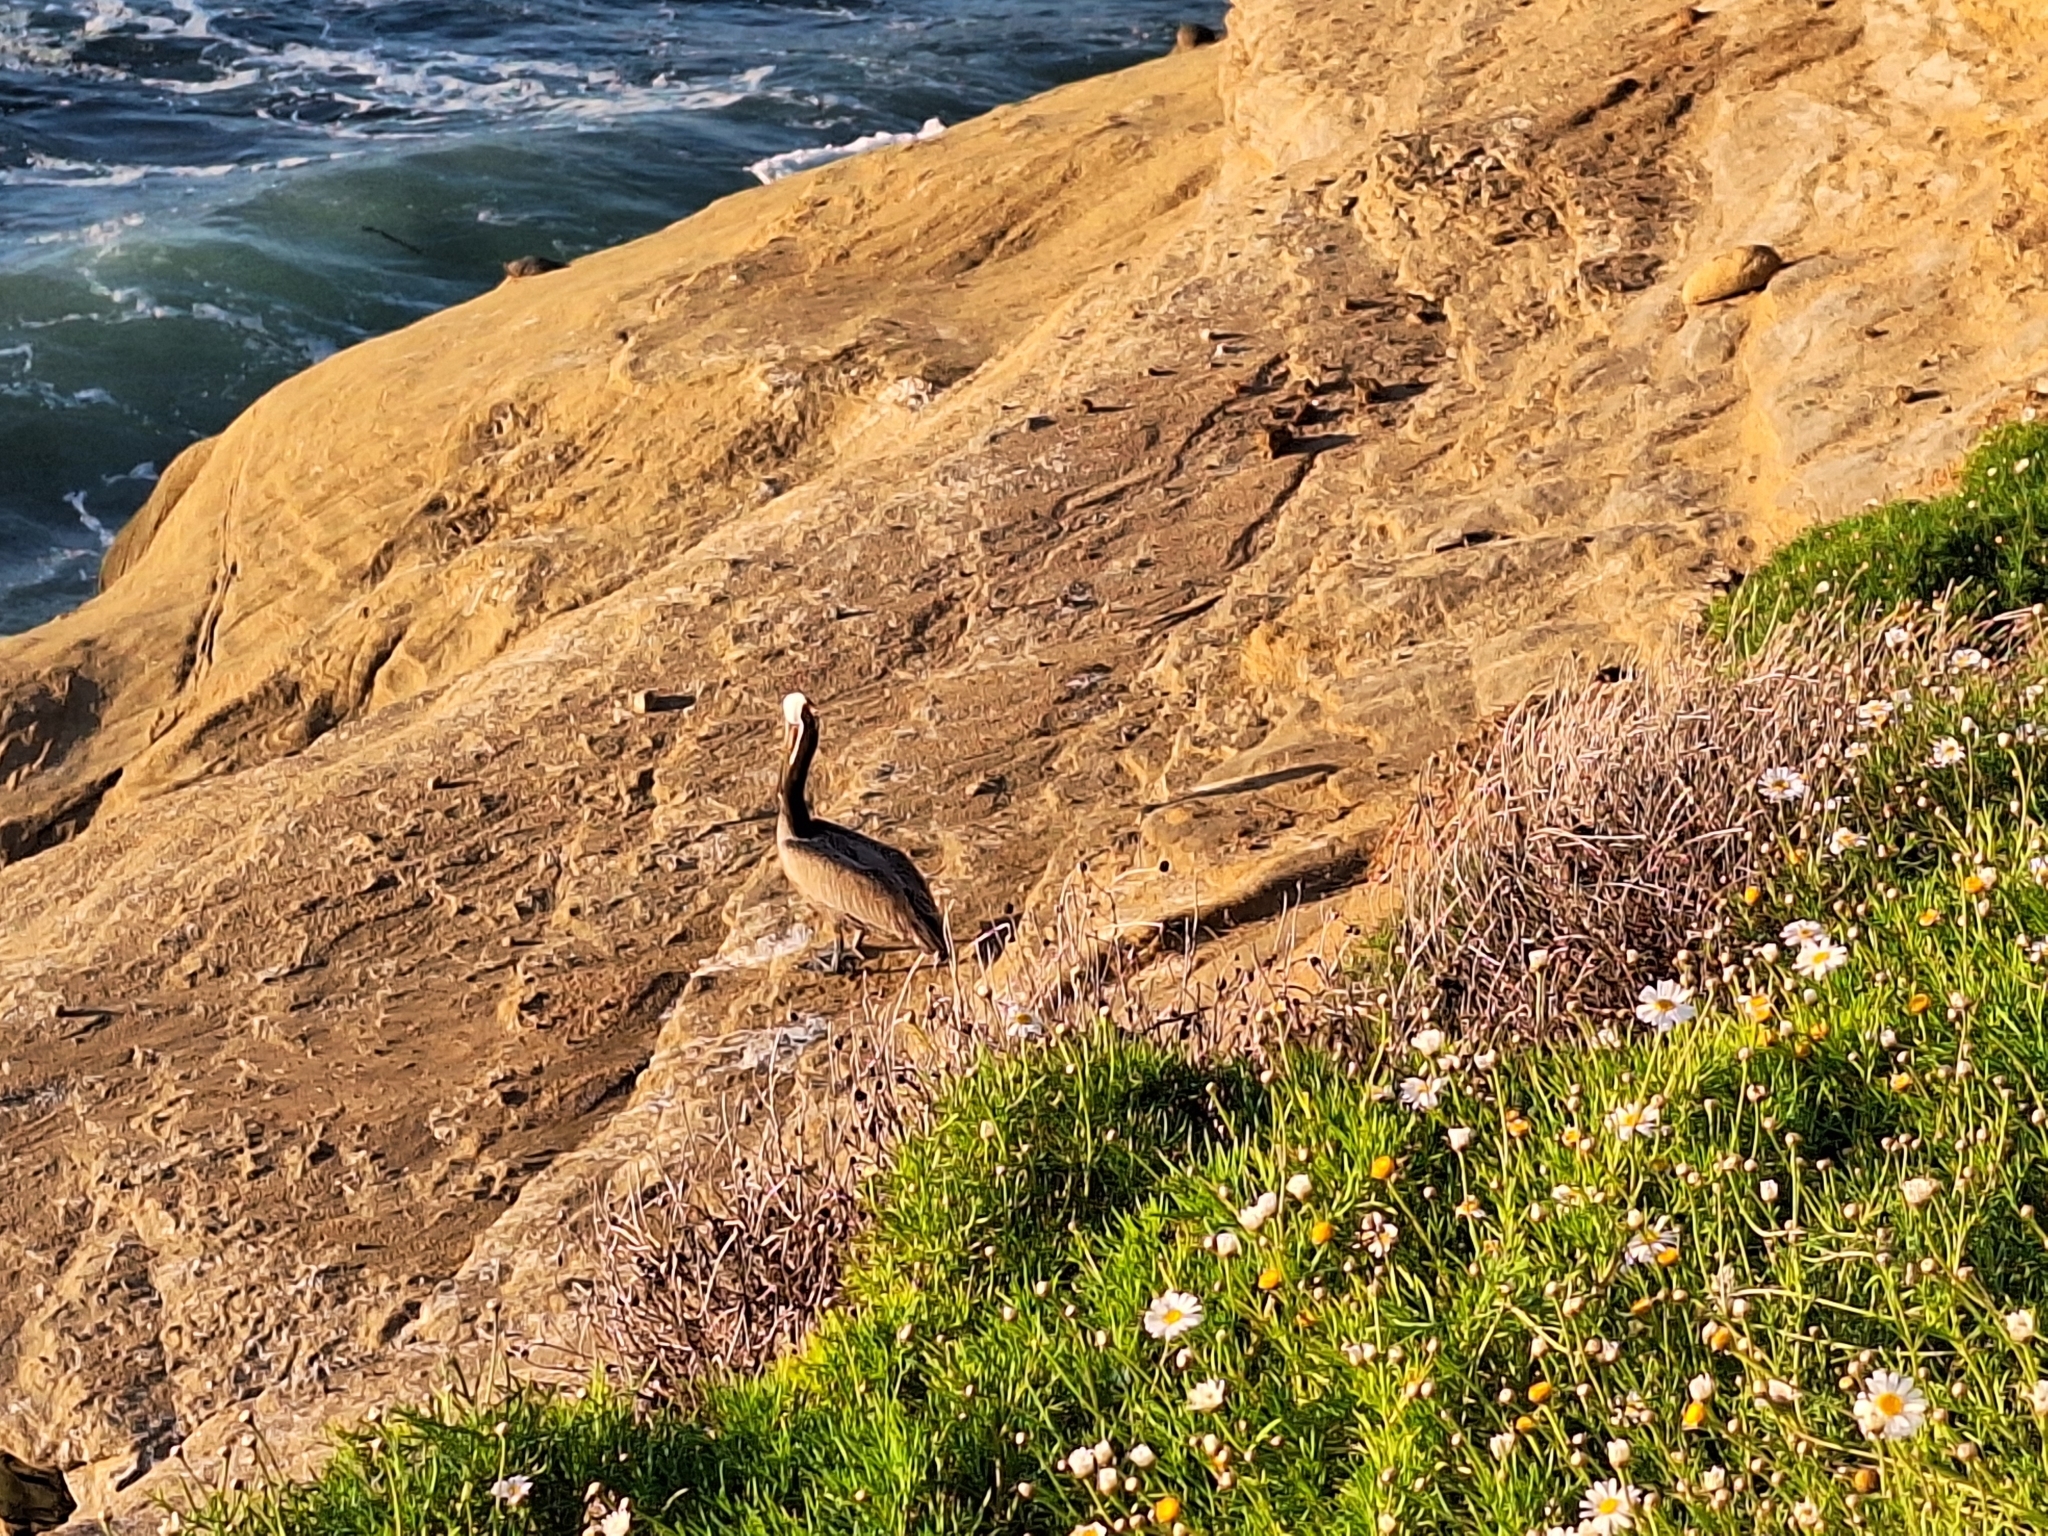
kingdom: Animalia
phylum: Chordata
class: Aves
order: Pelecaniformes
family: Pelecanidae
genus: Pelecanus
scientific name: Pelecanus occidentalis
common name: Brown pelican
